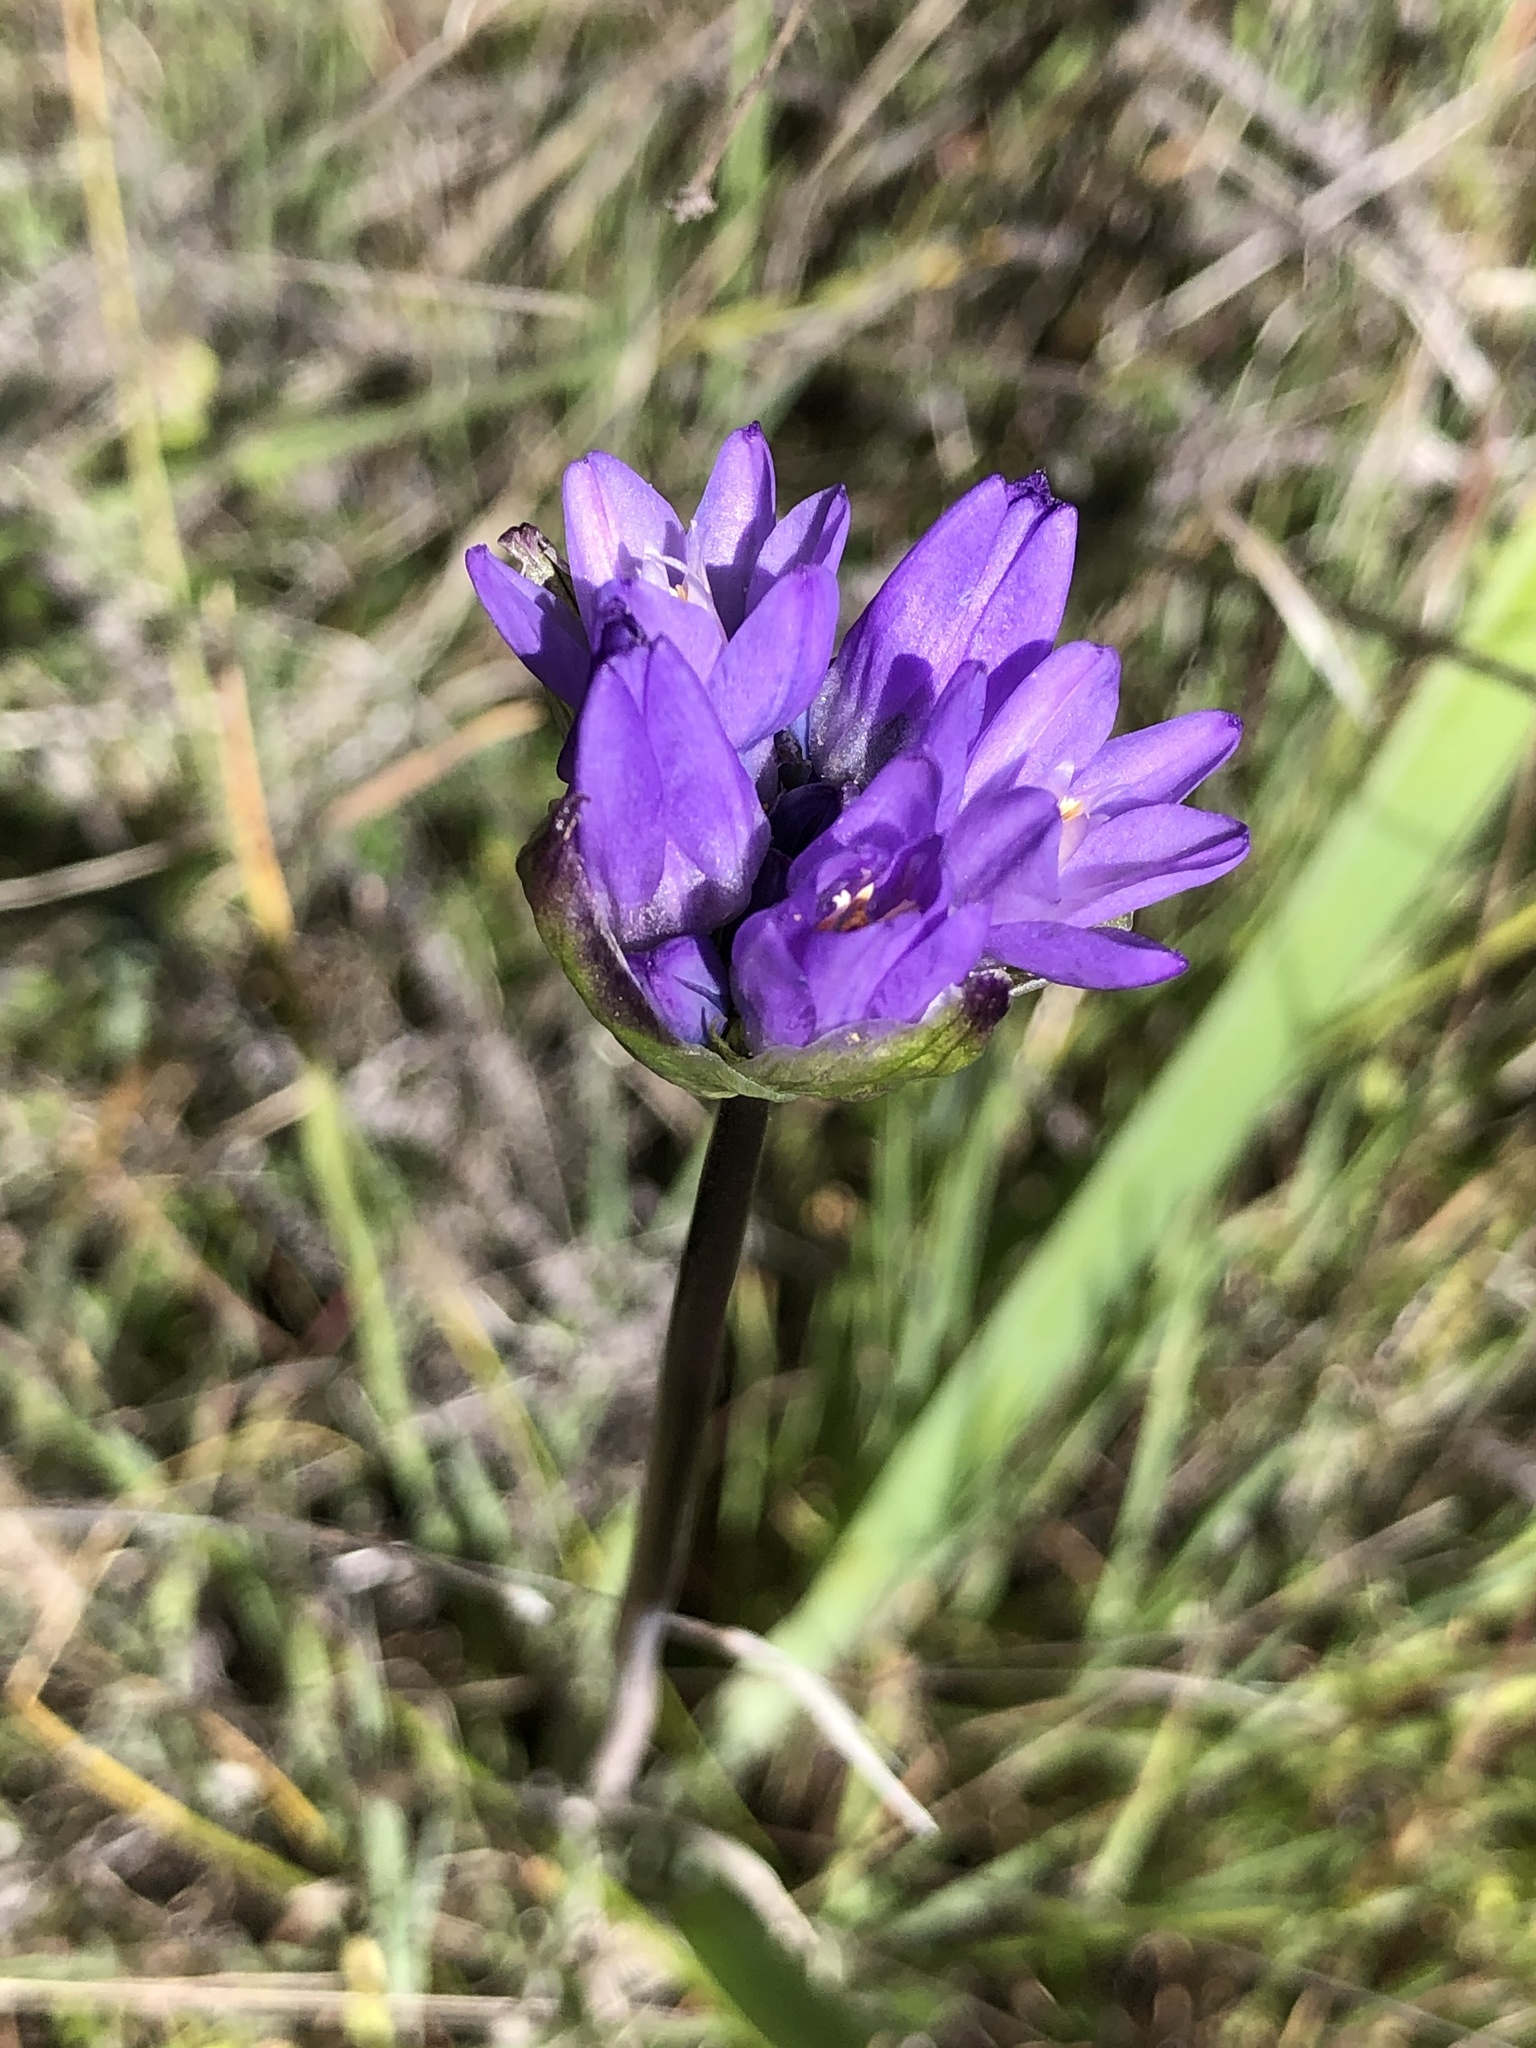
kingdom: Plantae
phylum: Tracheophyta
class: Liliopsida
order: Asparagales
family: Asparagaceae
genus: Dipterostemon
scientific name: Dipterostemon capitatus
